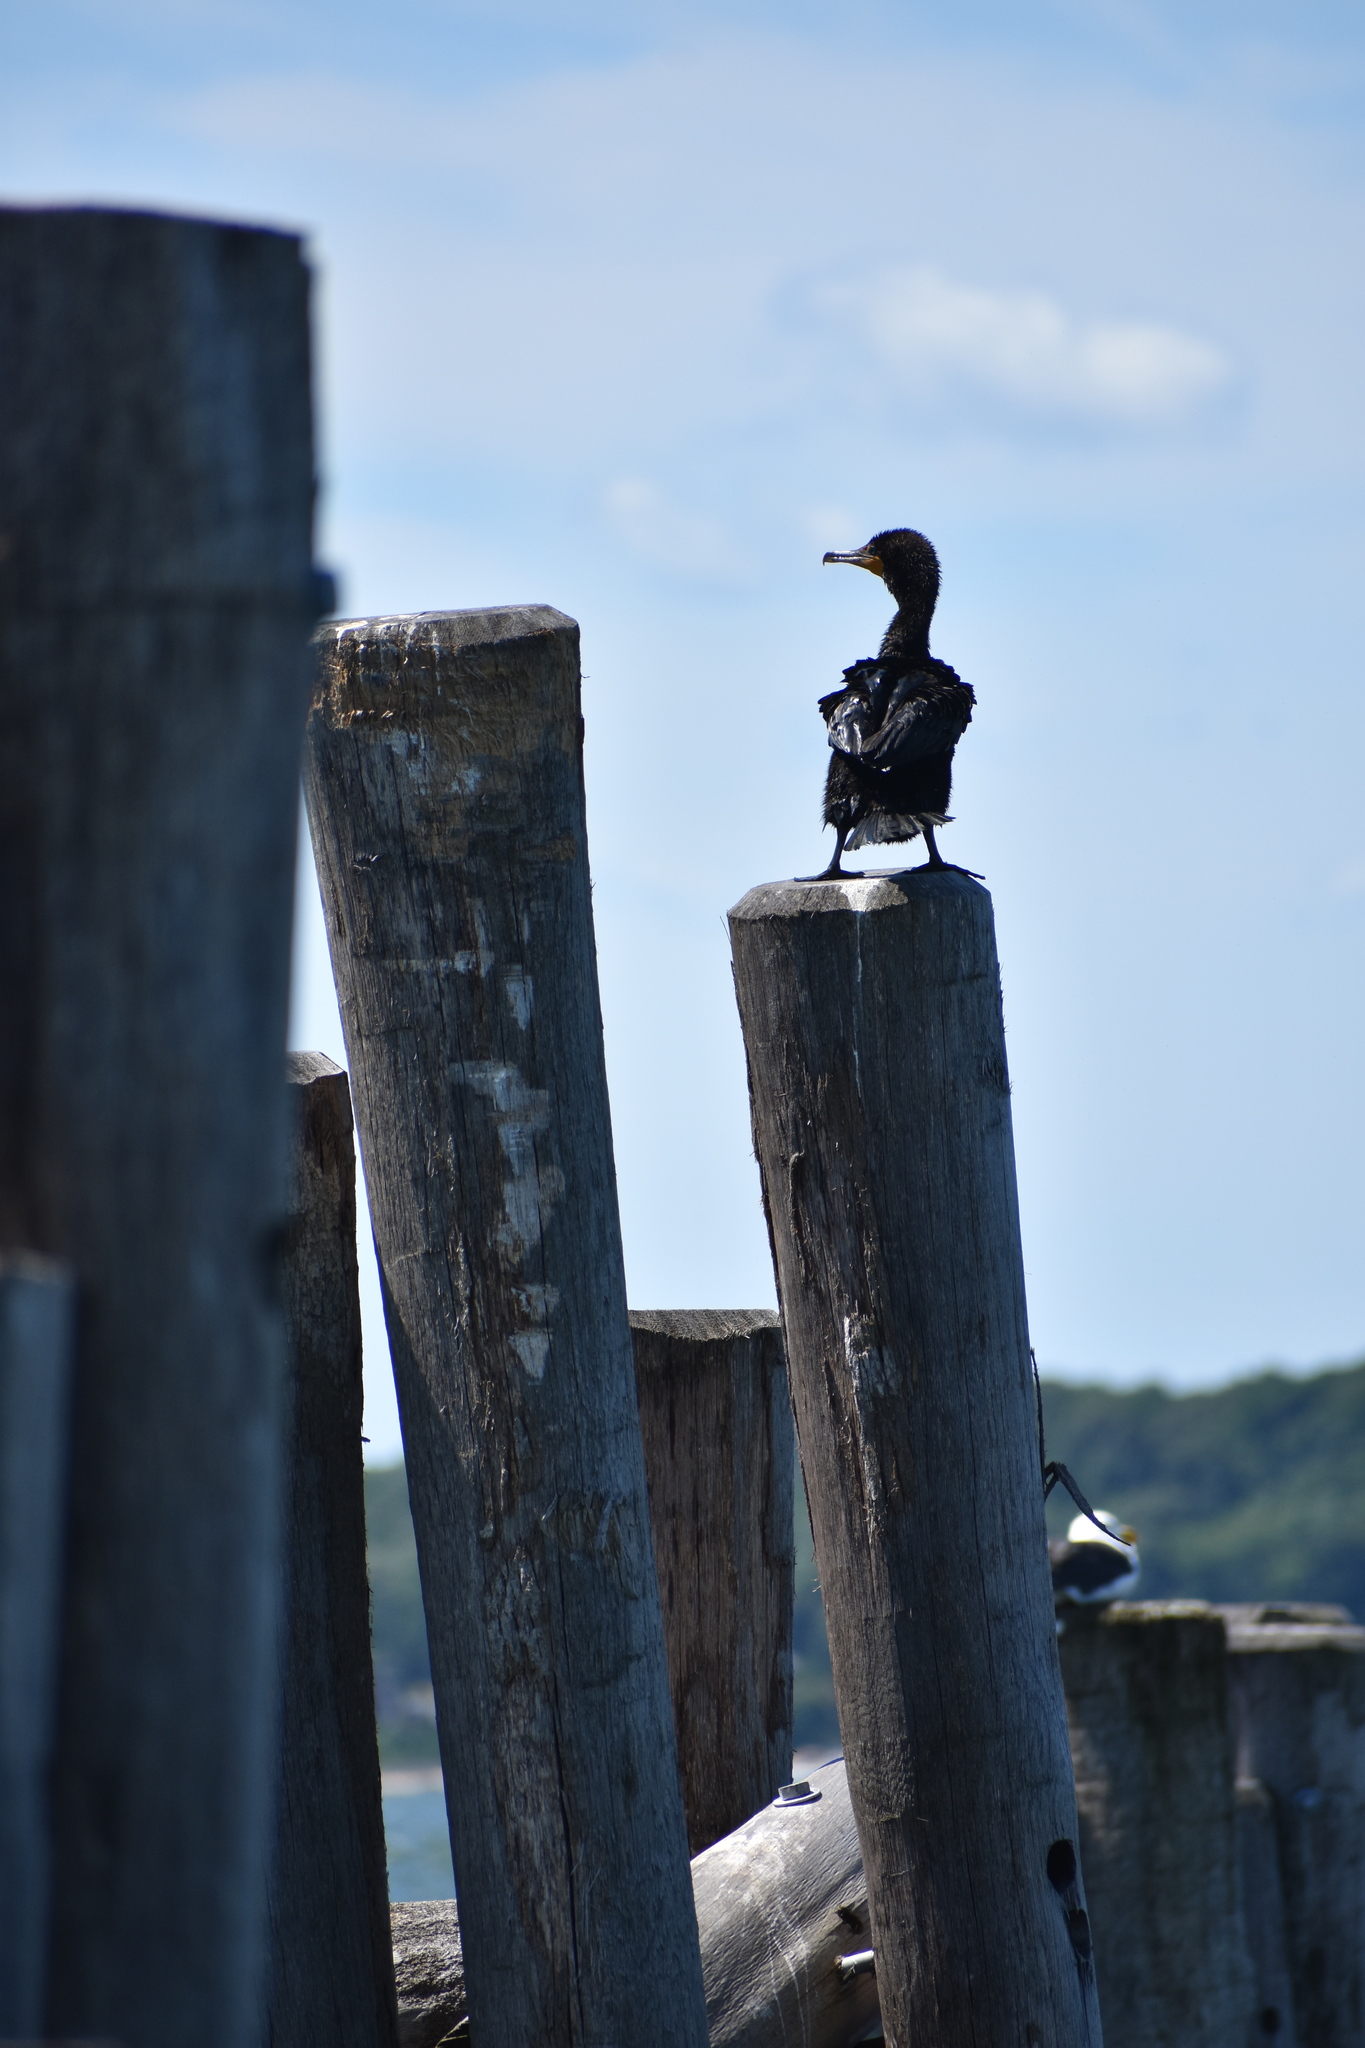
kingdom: Animalia
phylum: Chordata
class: Aves
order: Suliformes
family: Phalacrocoracidae
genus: Phalacrocorax
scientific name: Phalacrocorax auritus
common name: Double-crested cormorant
